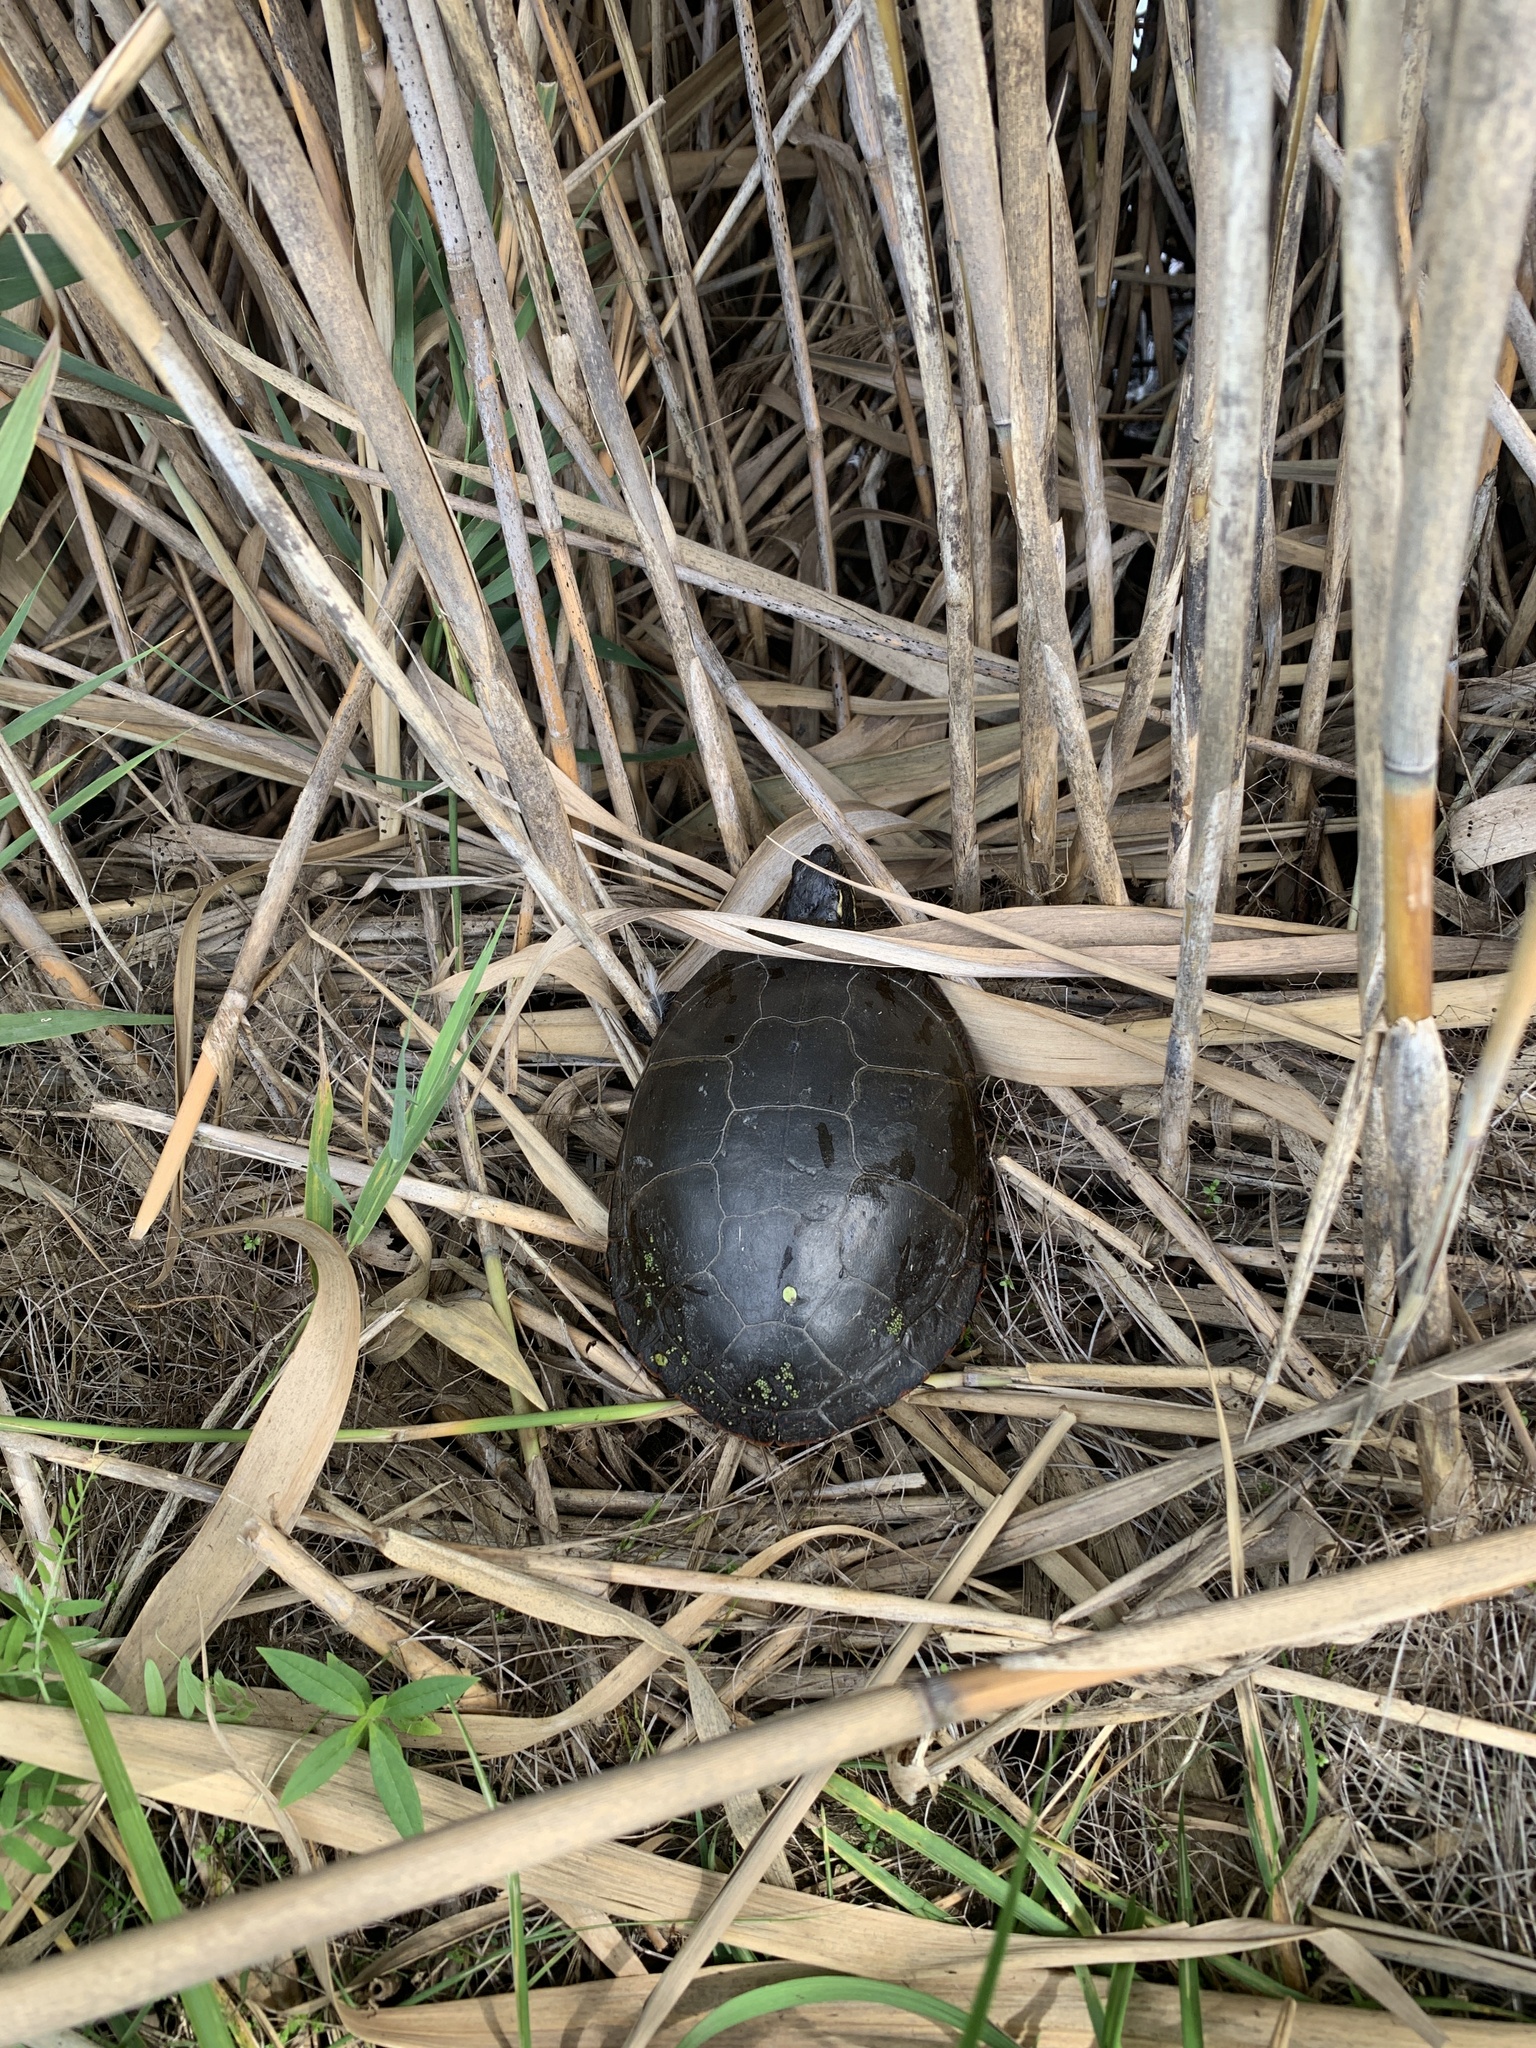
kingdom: Animalia
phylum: Chordata
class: Testudines
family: Emydidae
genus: Chrysemys
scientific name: Chrysemys picta
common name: Painted turtle
